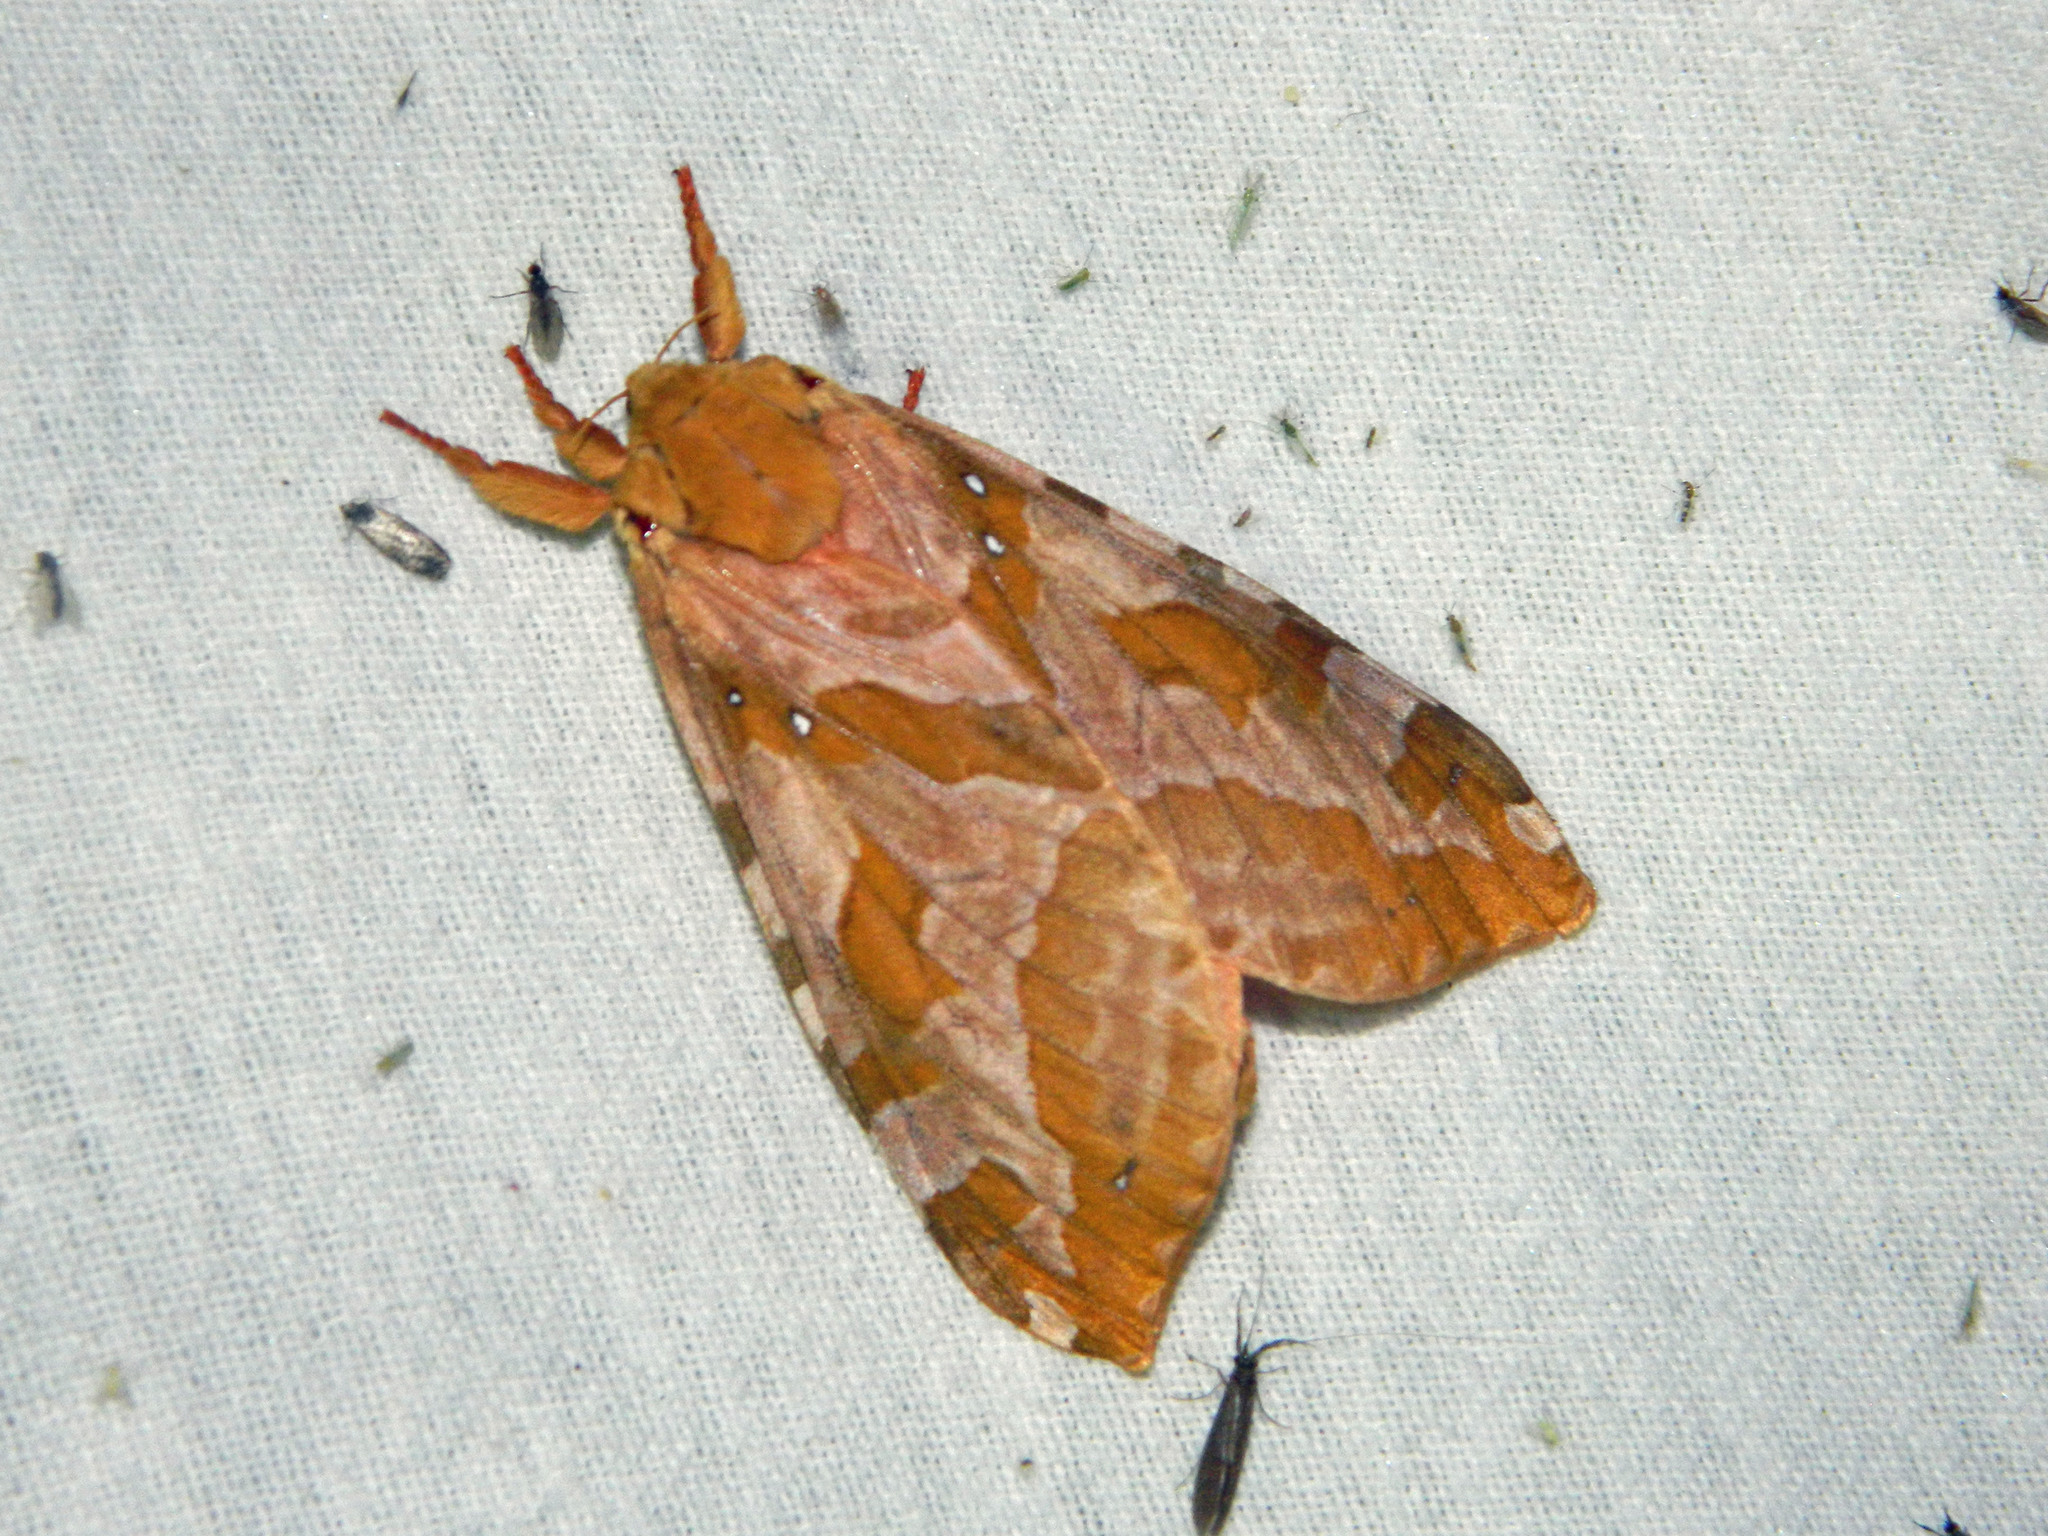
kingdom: Animalia
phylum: Arthropoda
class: Insecta
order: Lepidoptera
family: Hepialidae
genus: Sthenopis
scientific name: Sthenopis purpurascens
